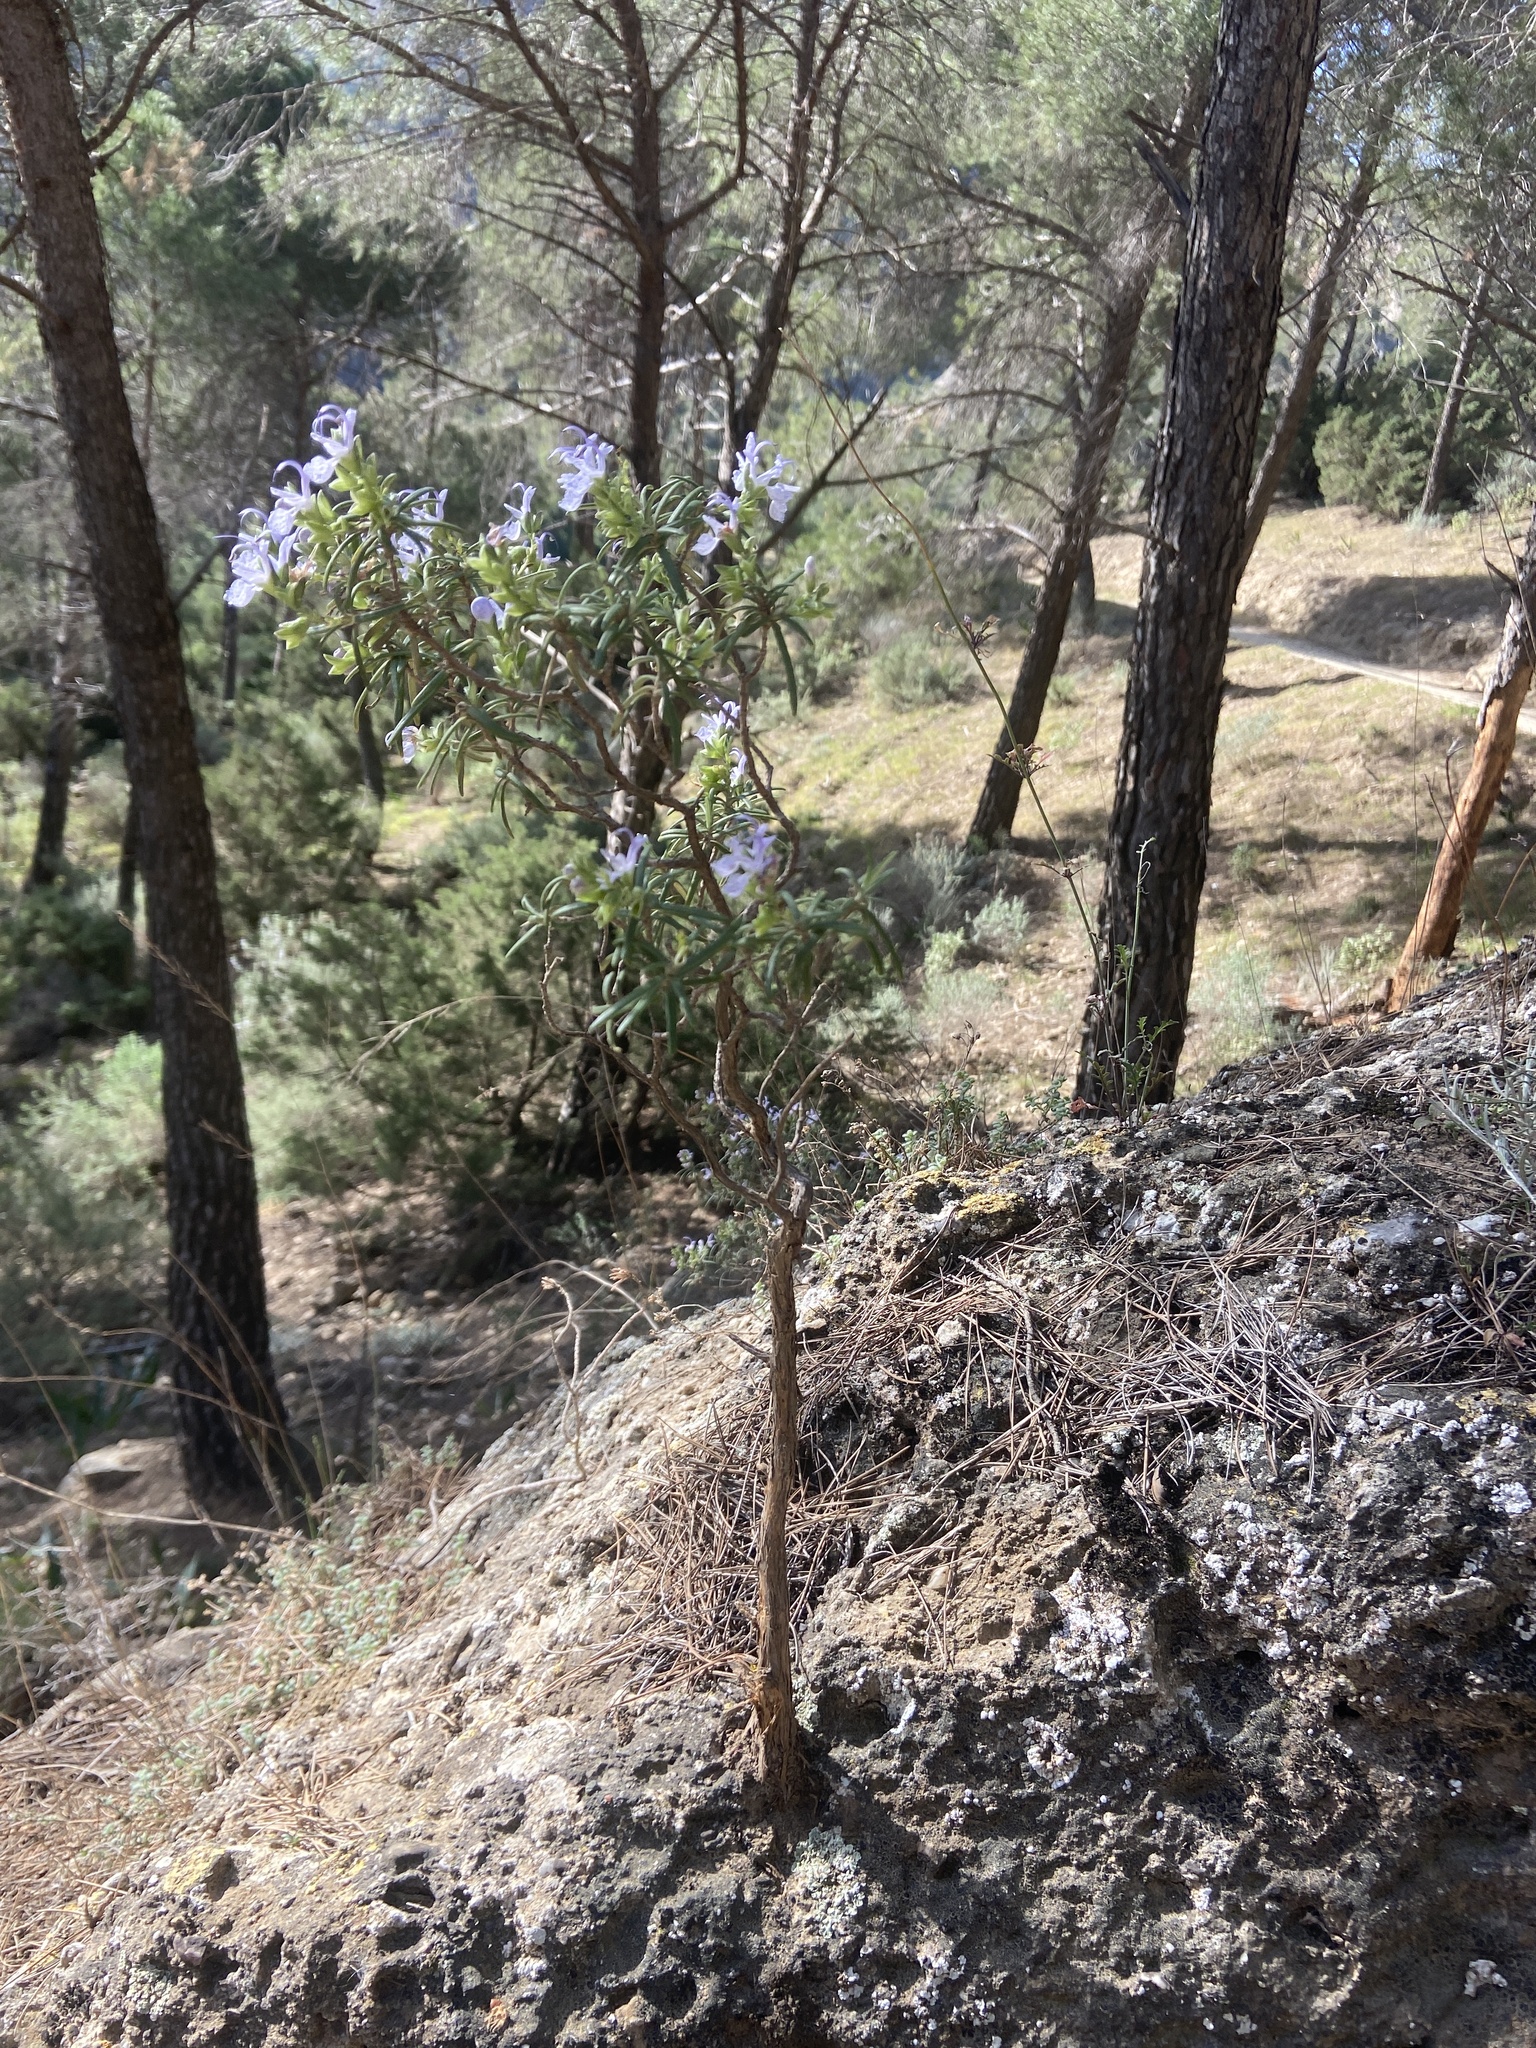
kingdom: Plantae
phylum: Tracheophyta
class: Magnoliopsida
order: Lamiales
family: Lamiaceae
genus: Salvia
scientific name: Salvia rosmarinus
